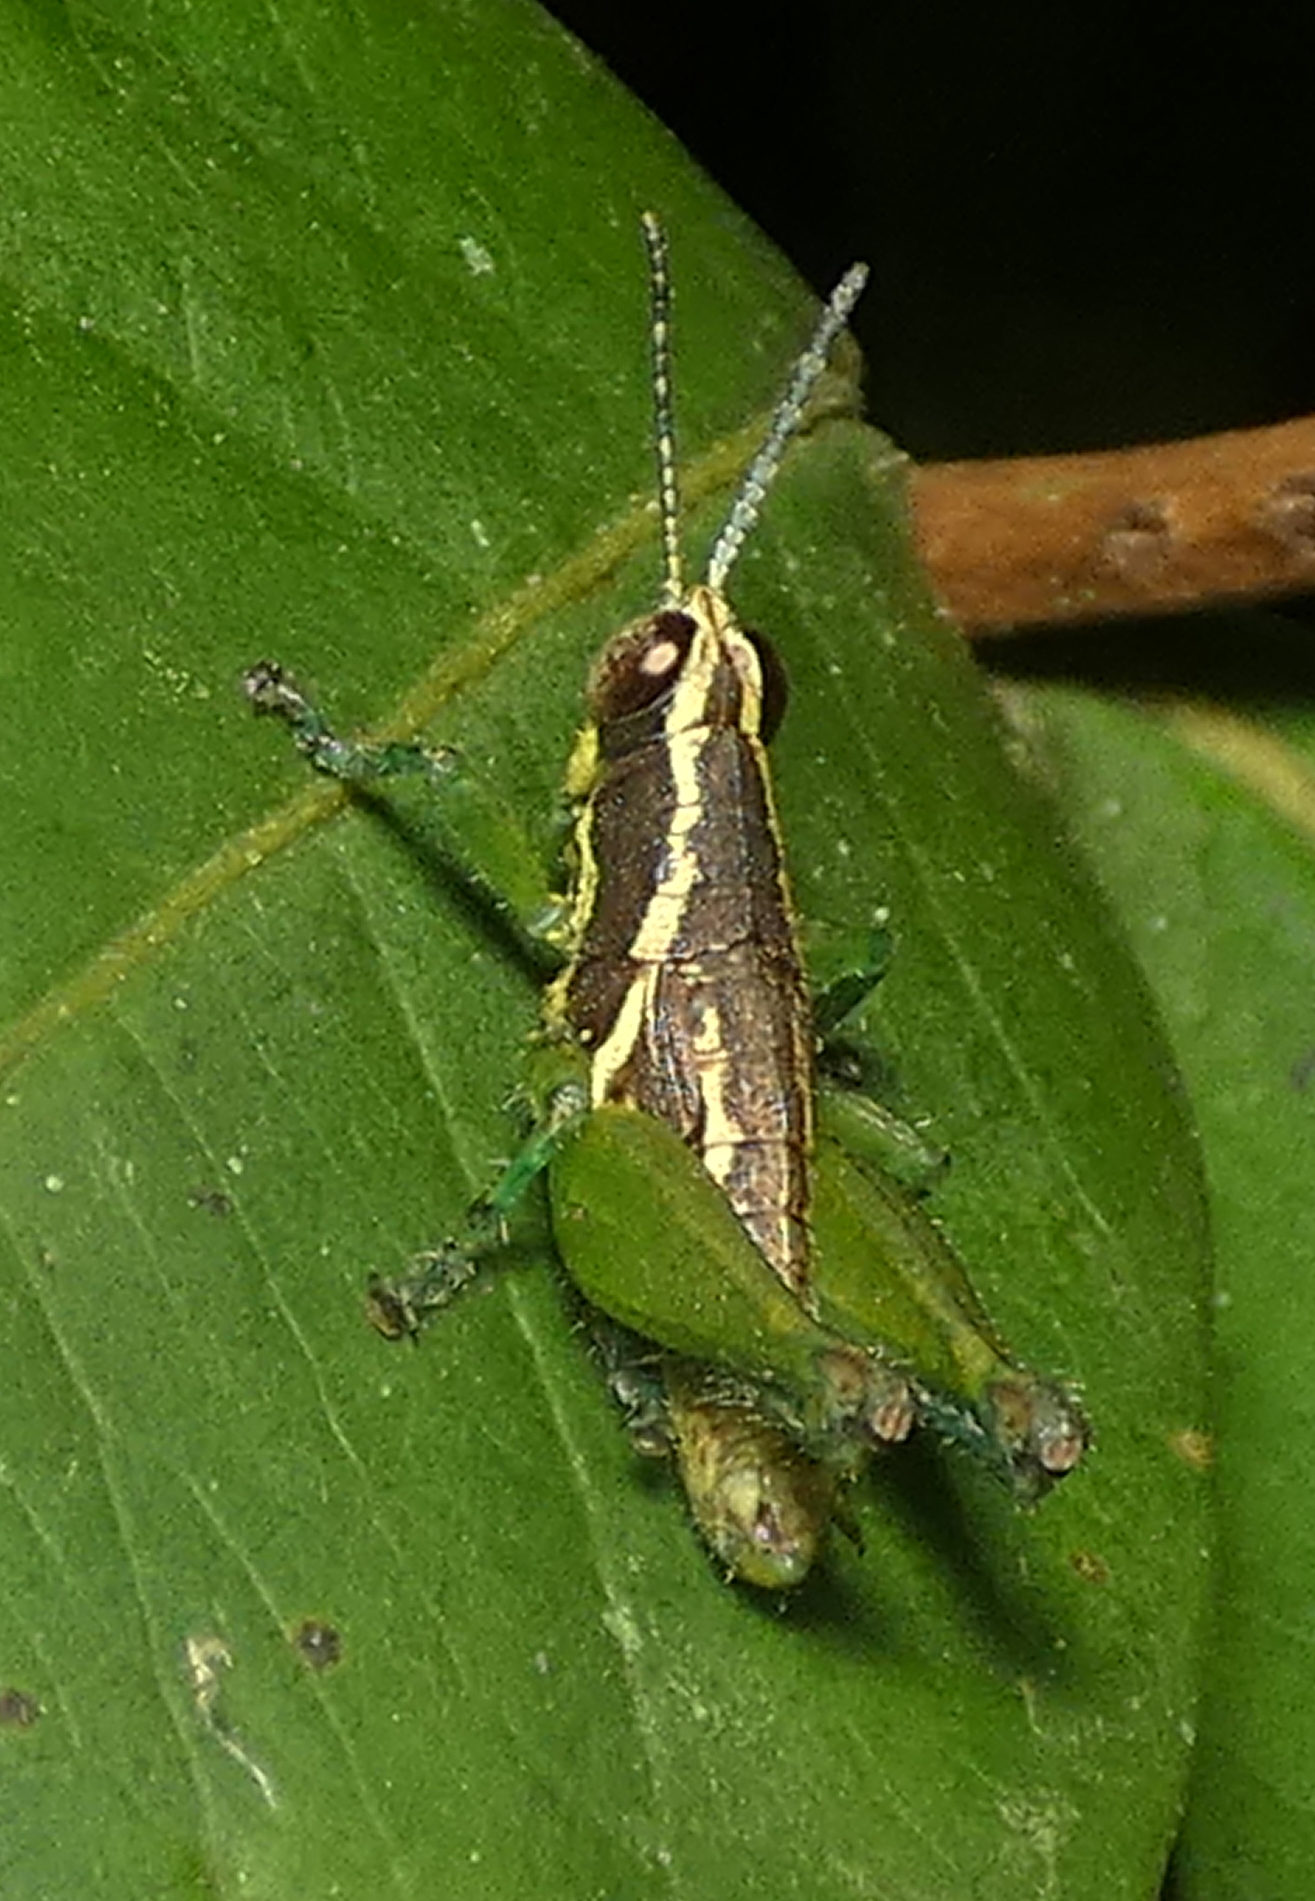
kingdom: Animalia
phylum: Arthropoda
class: Insecta
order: Orthoptera
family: Acrididae
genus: Roppacris
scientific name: Roppacris longicerca
